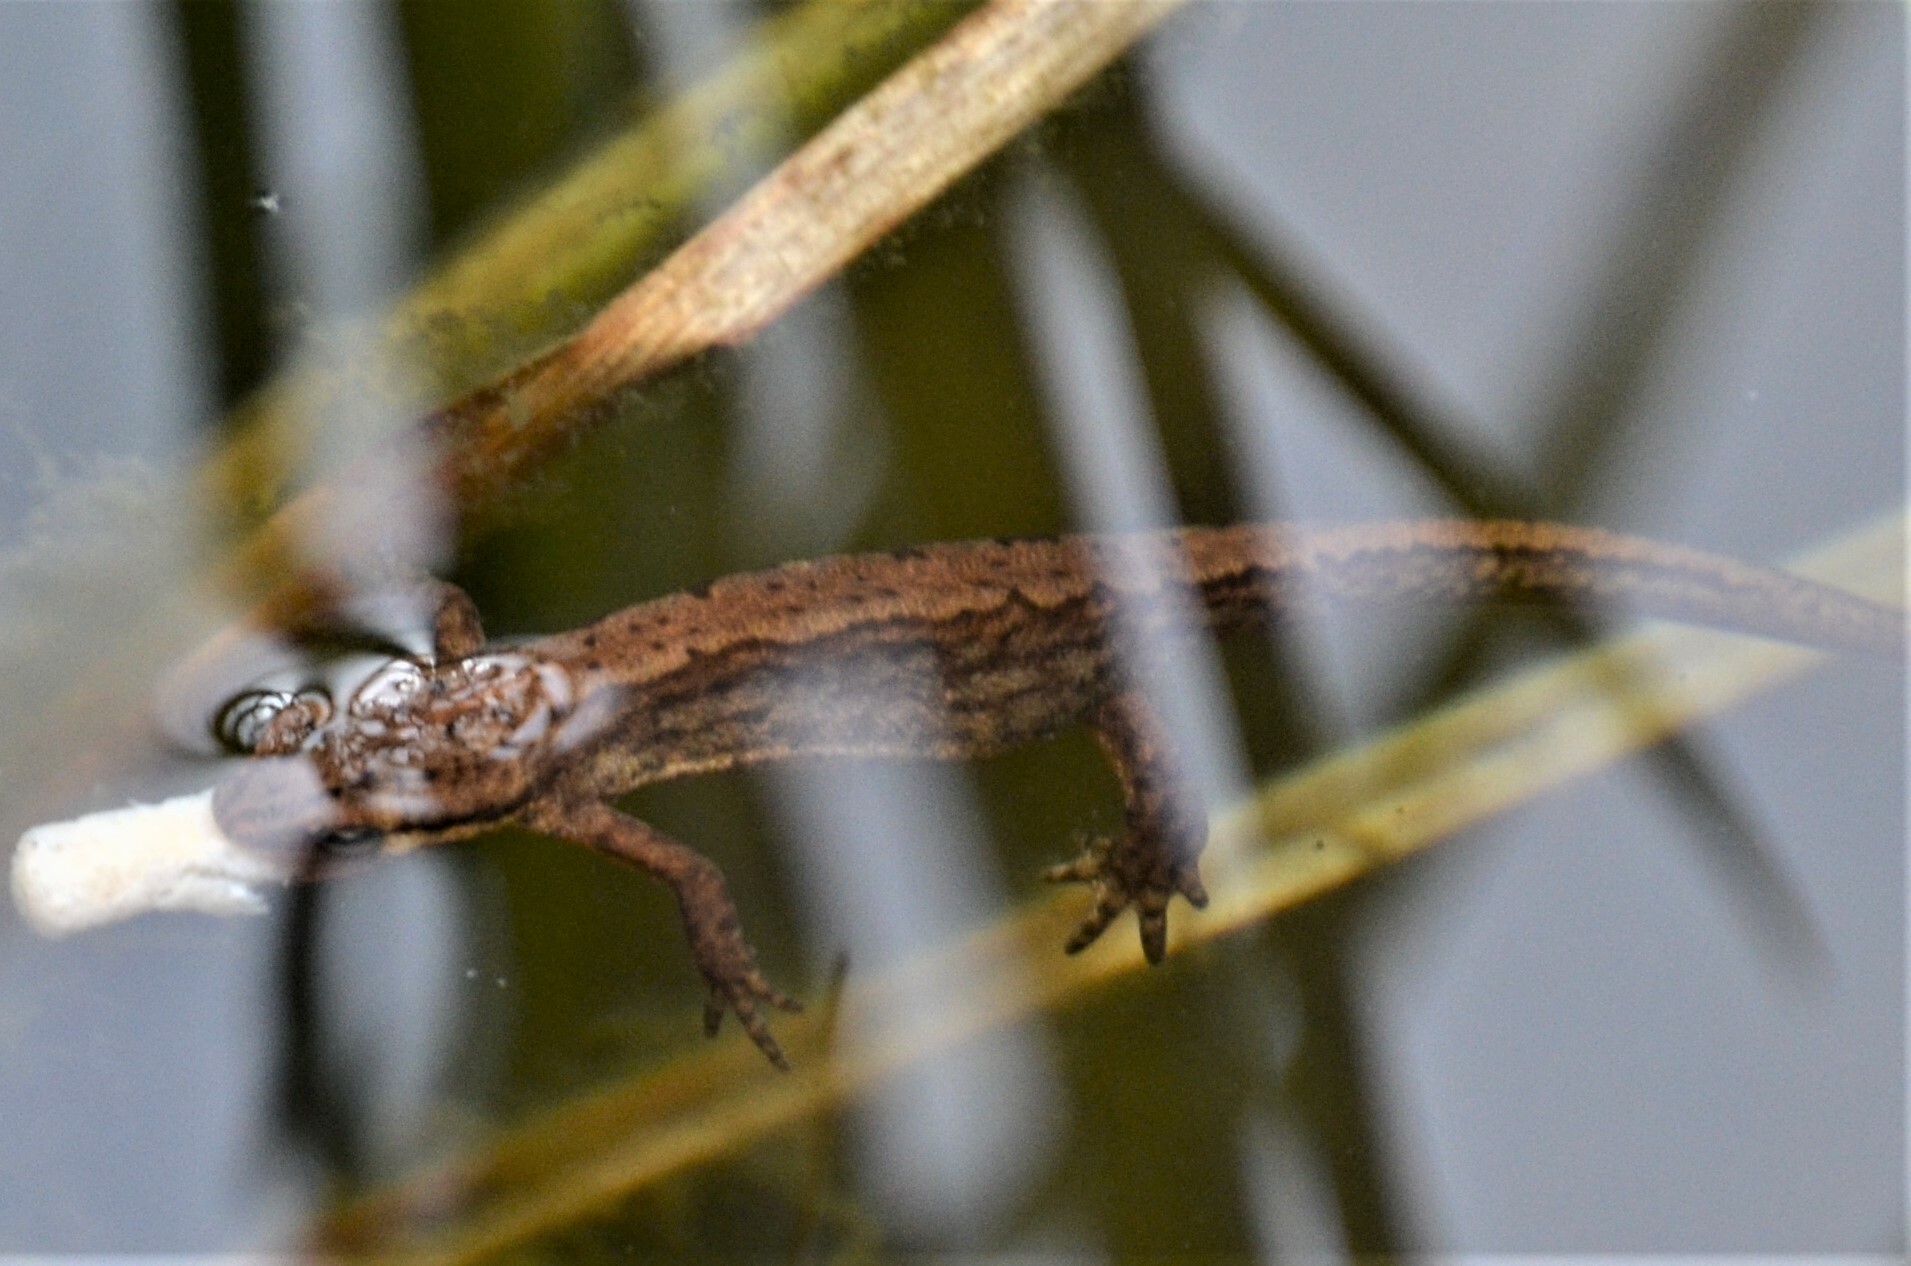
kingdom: Animalia
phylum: Chordata
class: Amphibia
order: Caudata
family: Salamandridae
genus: Lissotriton
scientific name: Lissotriton vulgaris
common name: Smooth newt
